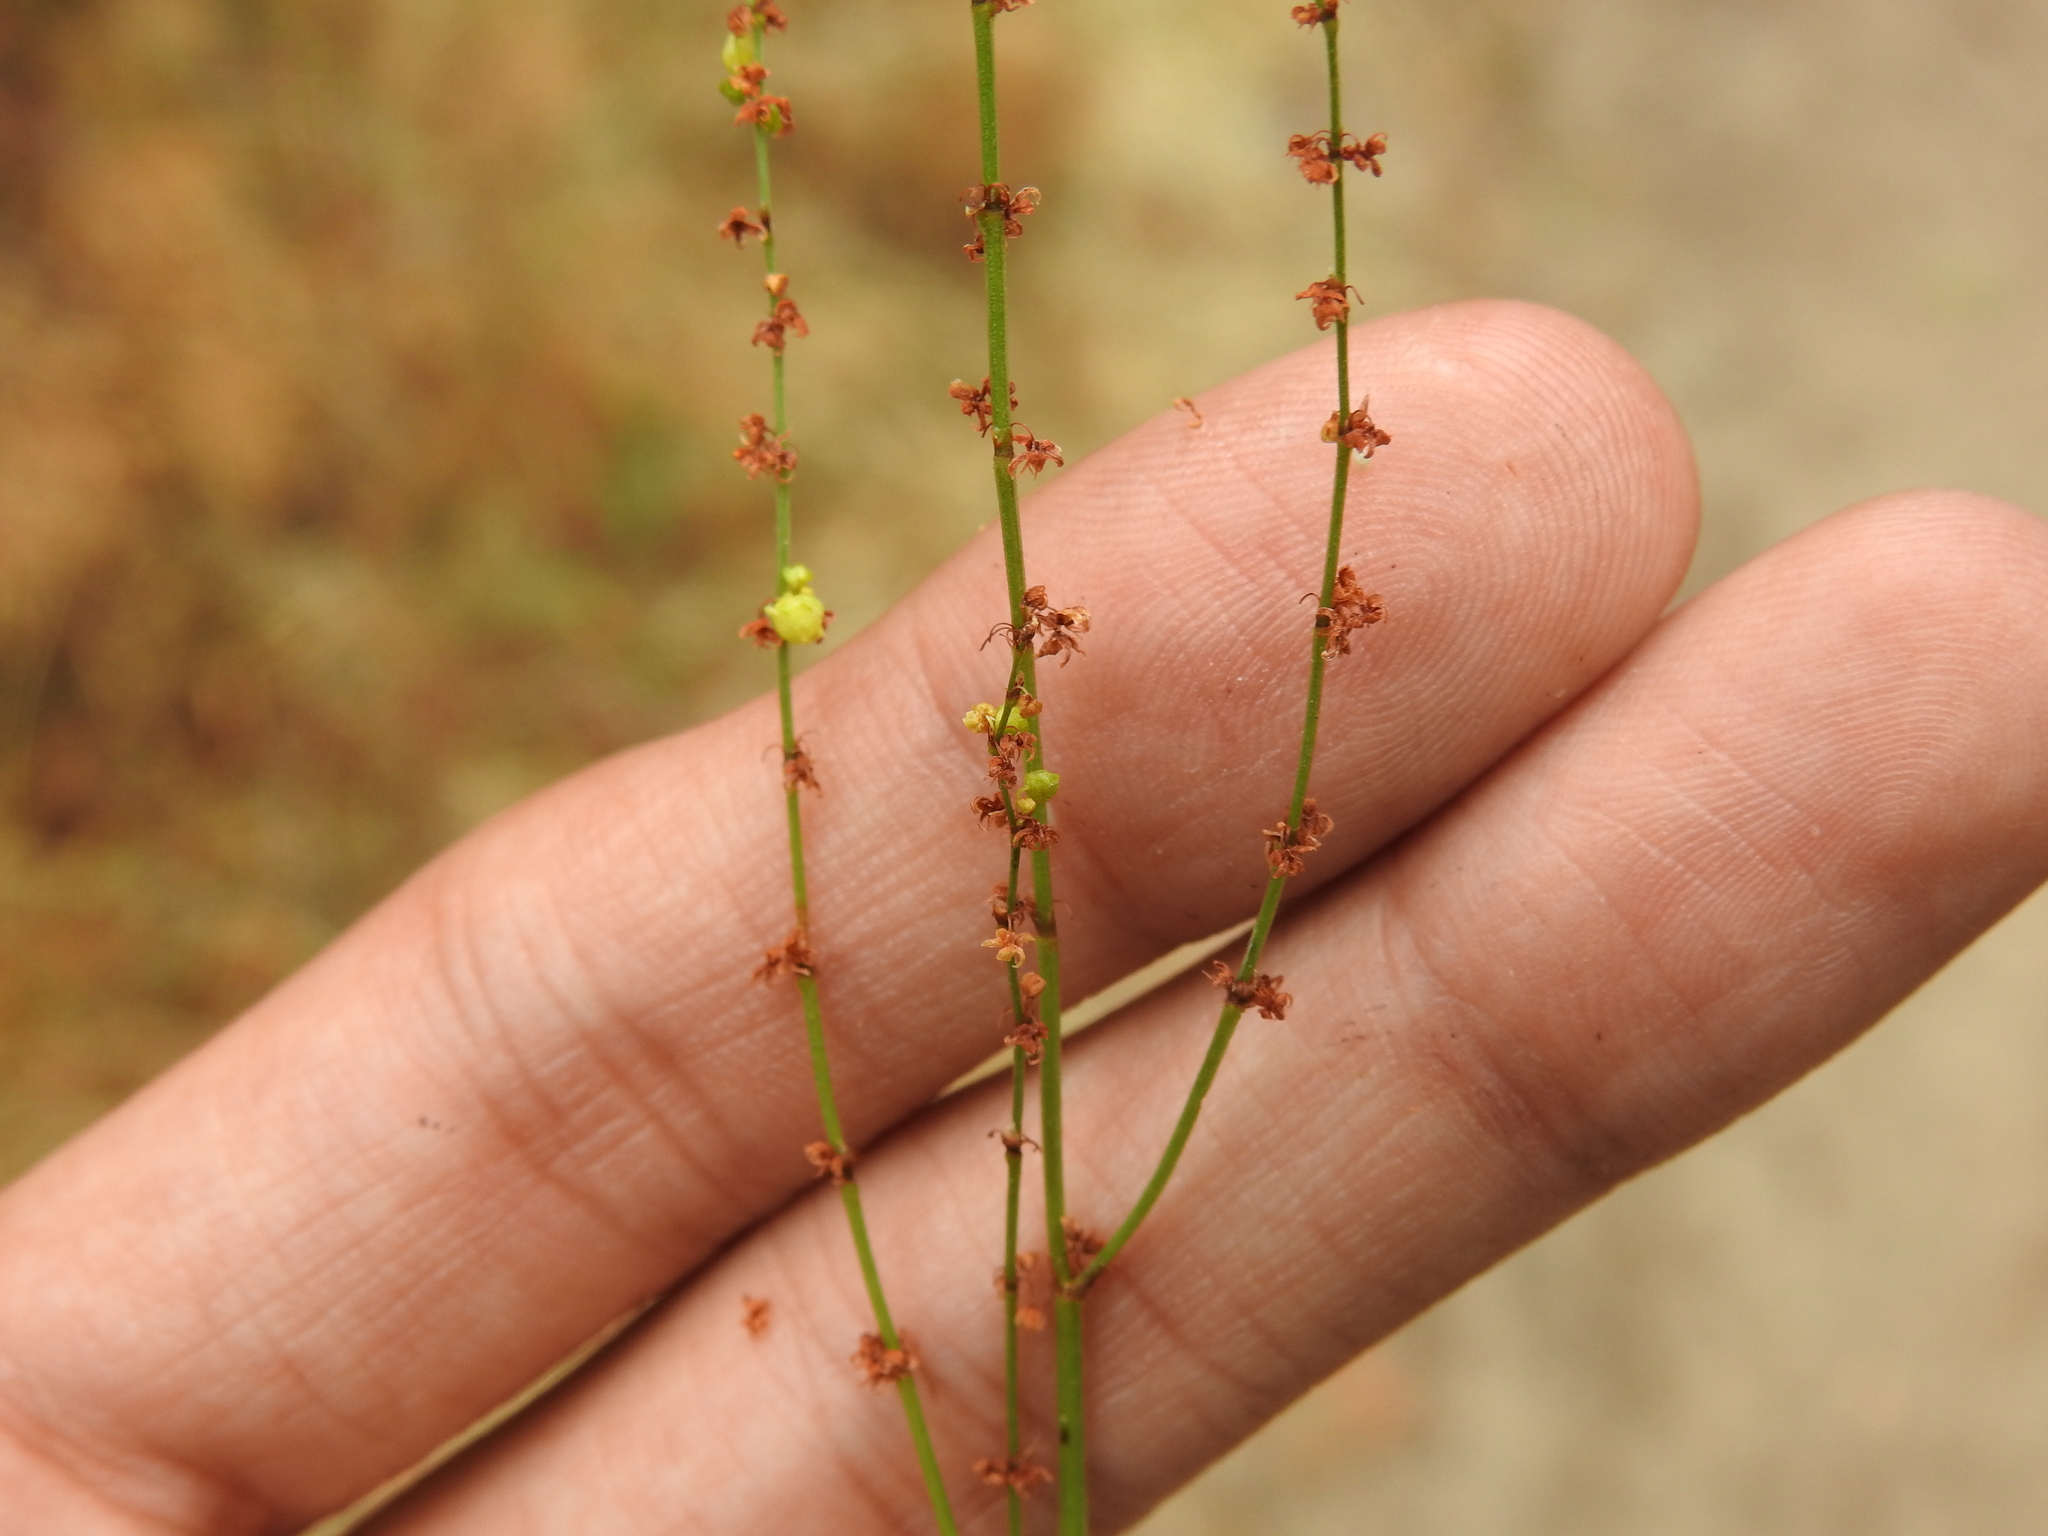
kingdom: Plantae
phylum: Tracheophyta
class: Magnoliopsida
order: Caryophyllales
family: Polygonaceae
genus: Rumex
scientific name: Rumex acetosella
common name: Common sheep sorrel
